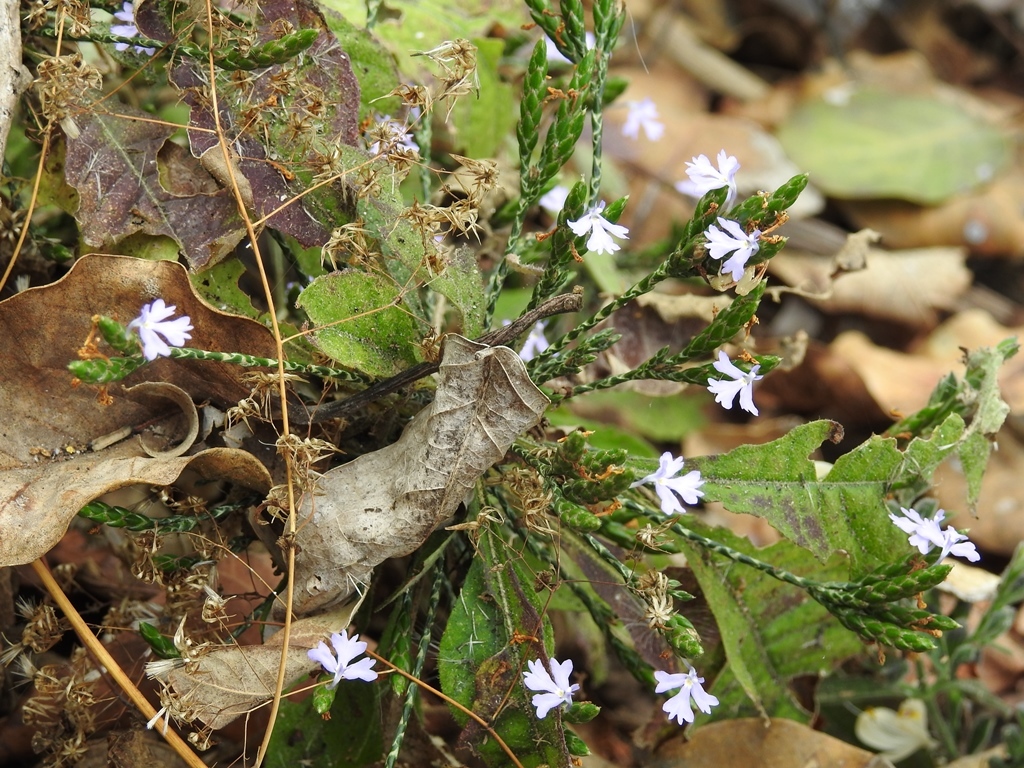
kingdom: Plantae
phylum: Tracheophyta
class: Magnoliopsida
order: Lamiales
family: Acanthaceae
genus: Elytraria
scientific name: Elytraria imbricata
